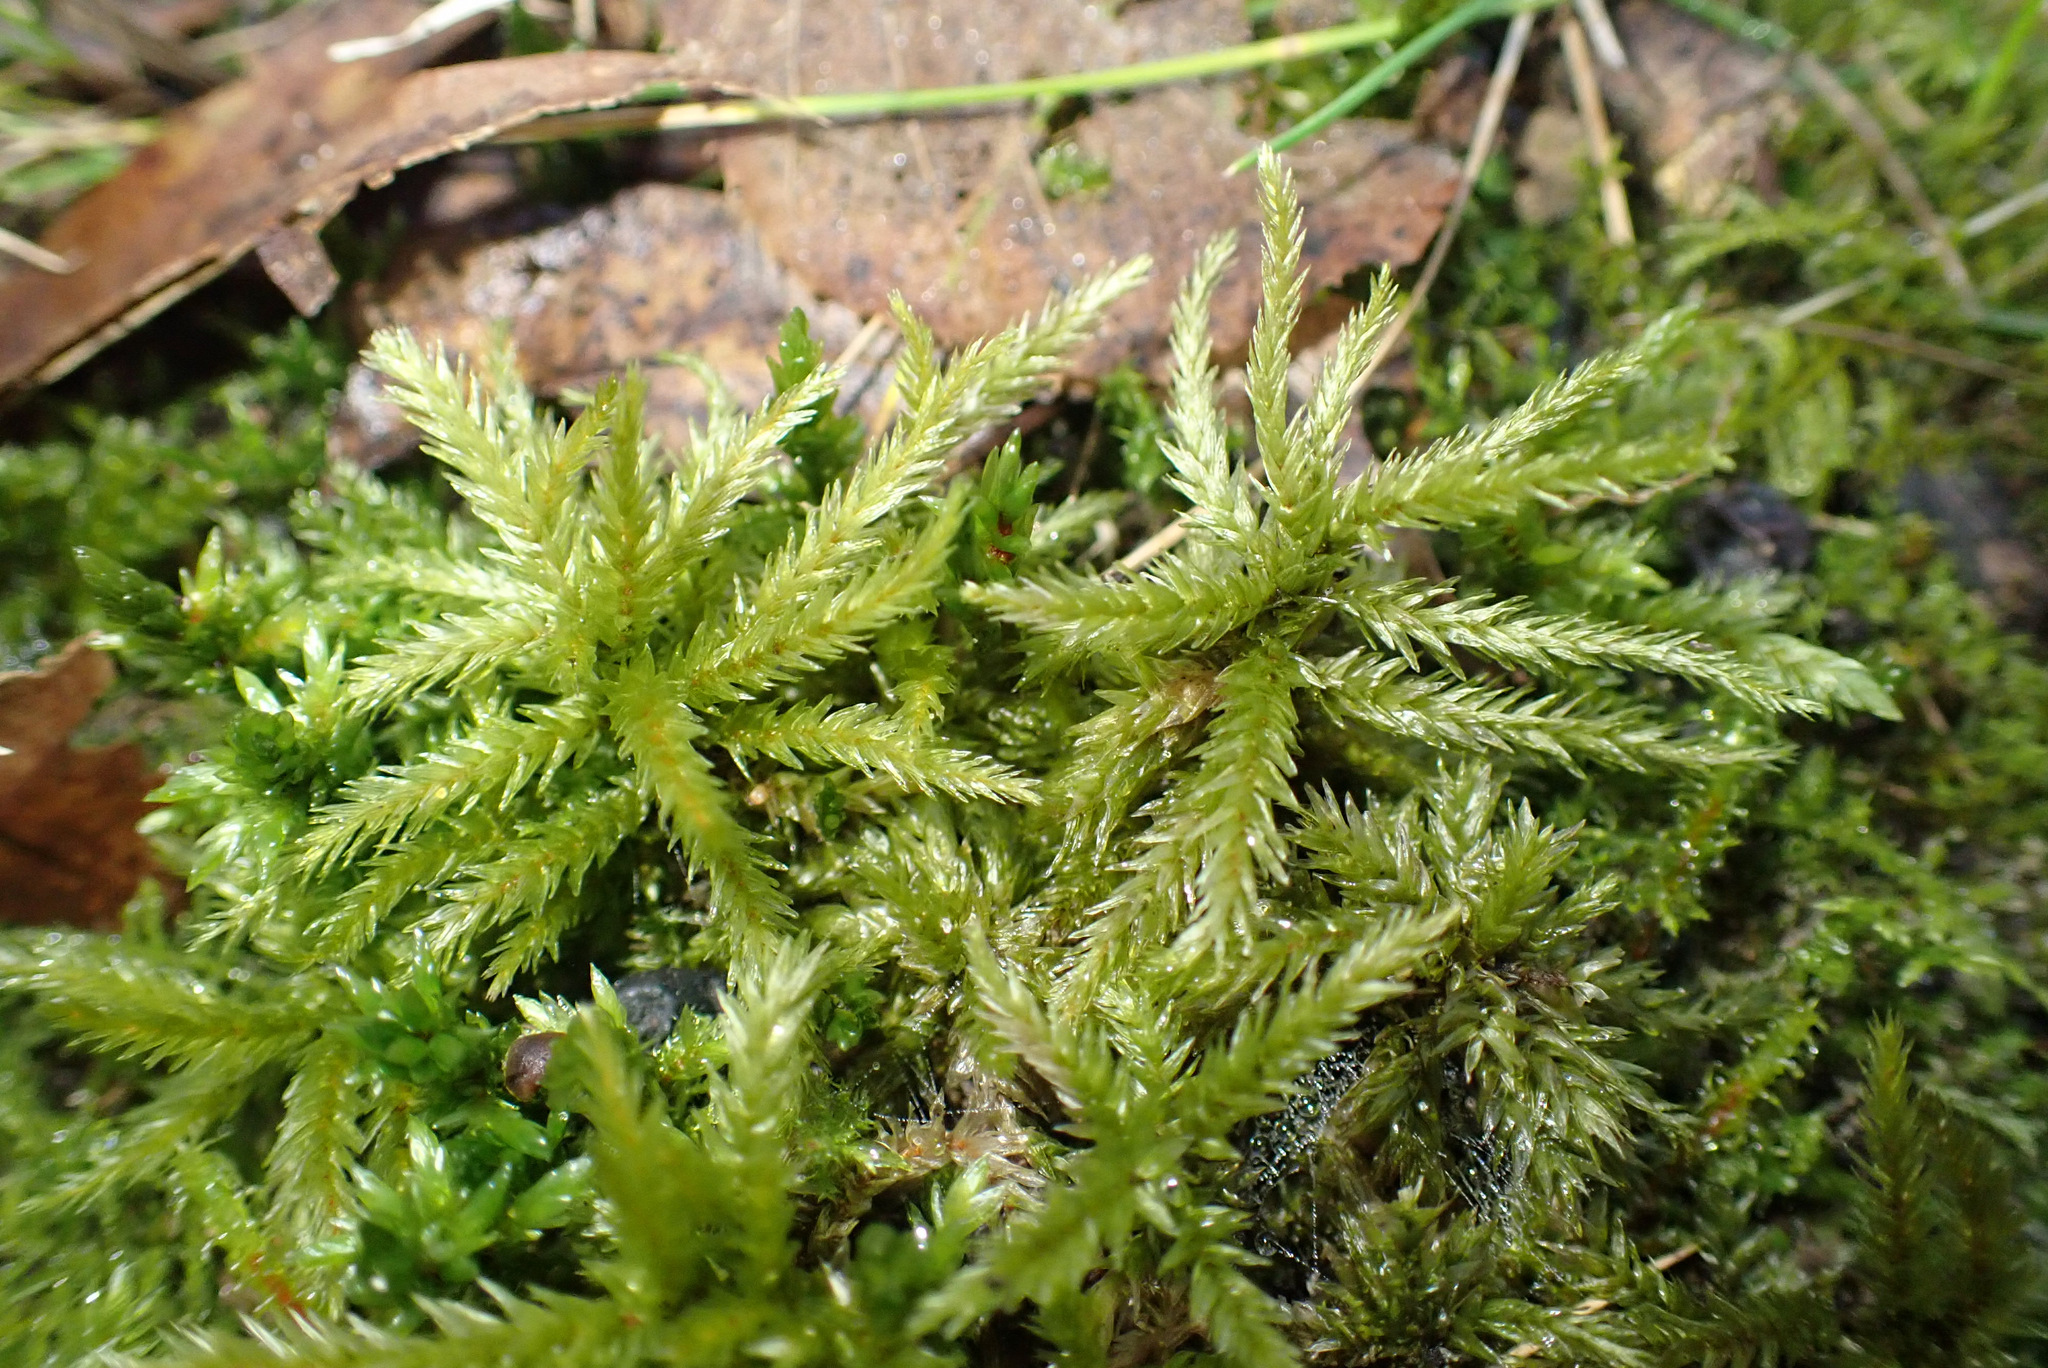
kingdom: Plantae
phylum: Bryophyta
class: Bryopsida
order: Hypnales
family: Climaciaceae
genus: Climacium
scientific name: Climacium dendroides
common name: Northern tree moss
